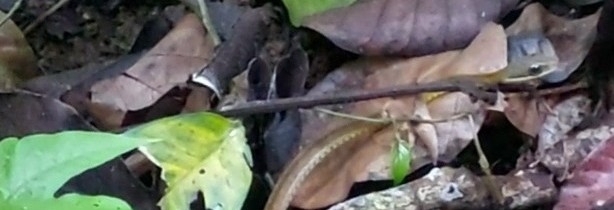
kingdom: Animalia
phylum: Chordata
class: Squamata
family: Colubridae
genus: Dendrophidion
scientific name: Dendrophidion percarinatum
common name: South american forest racer
